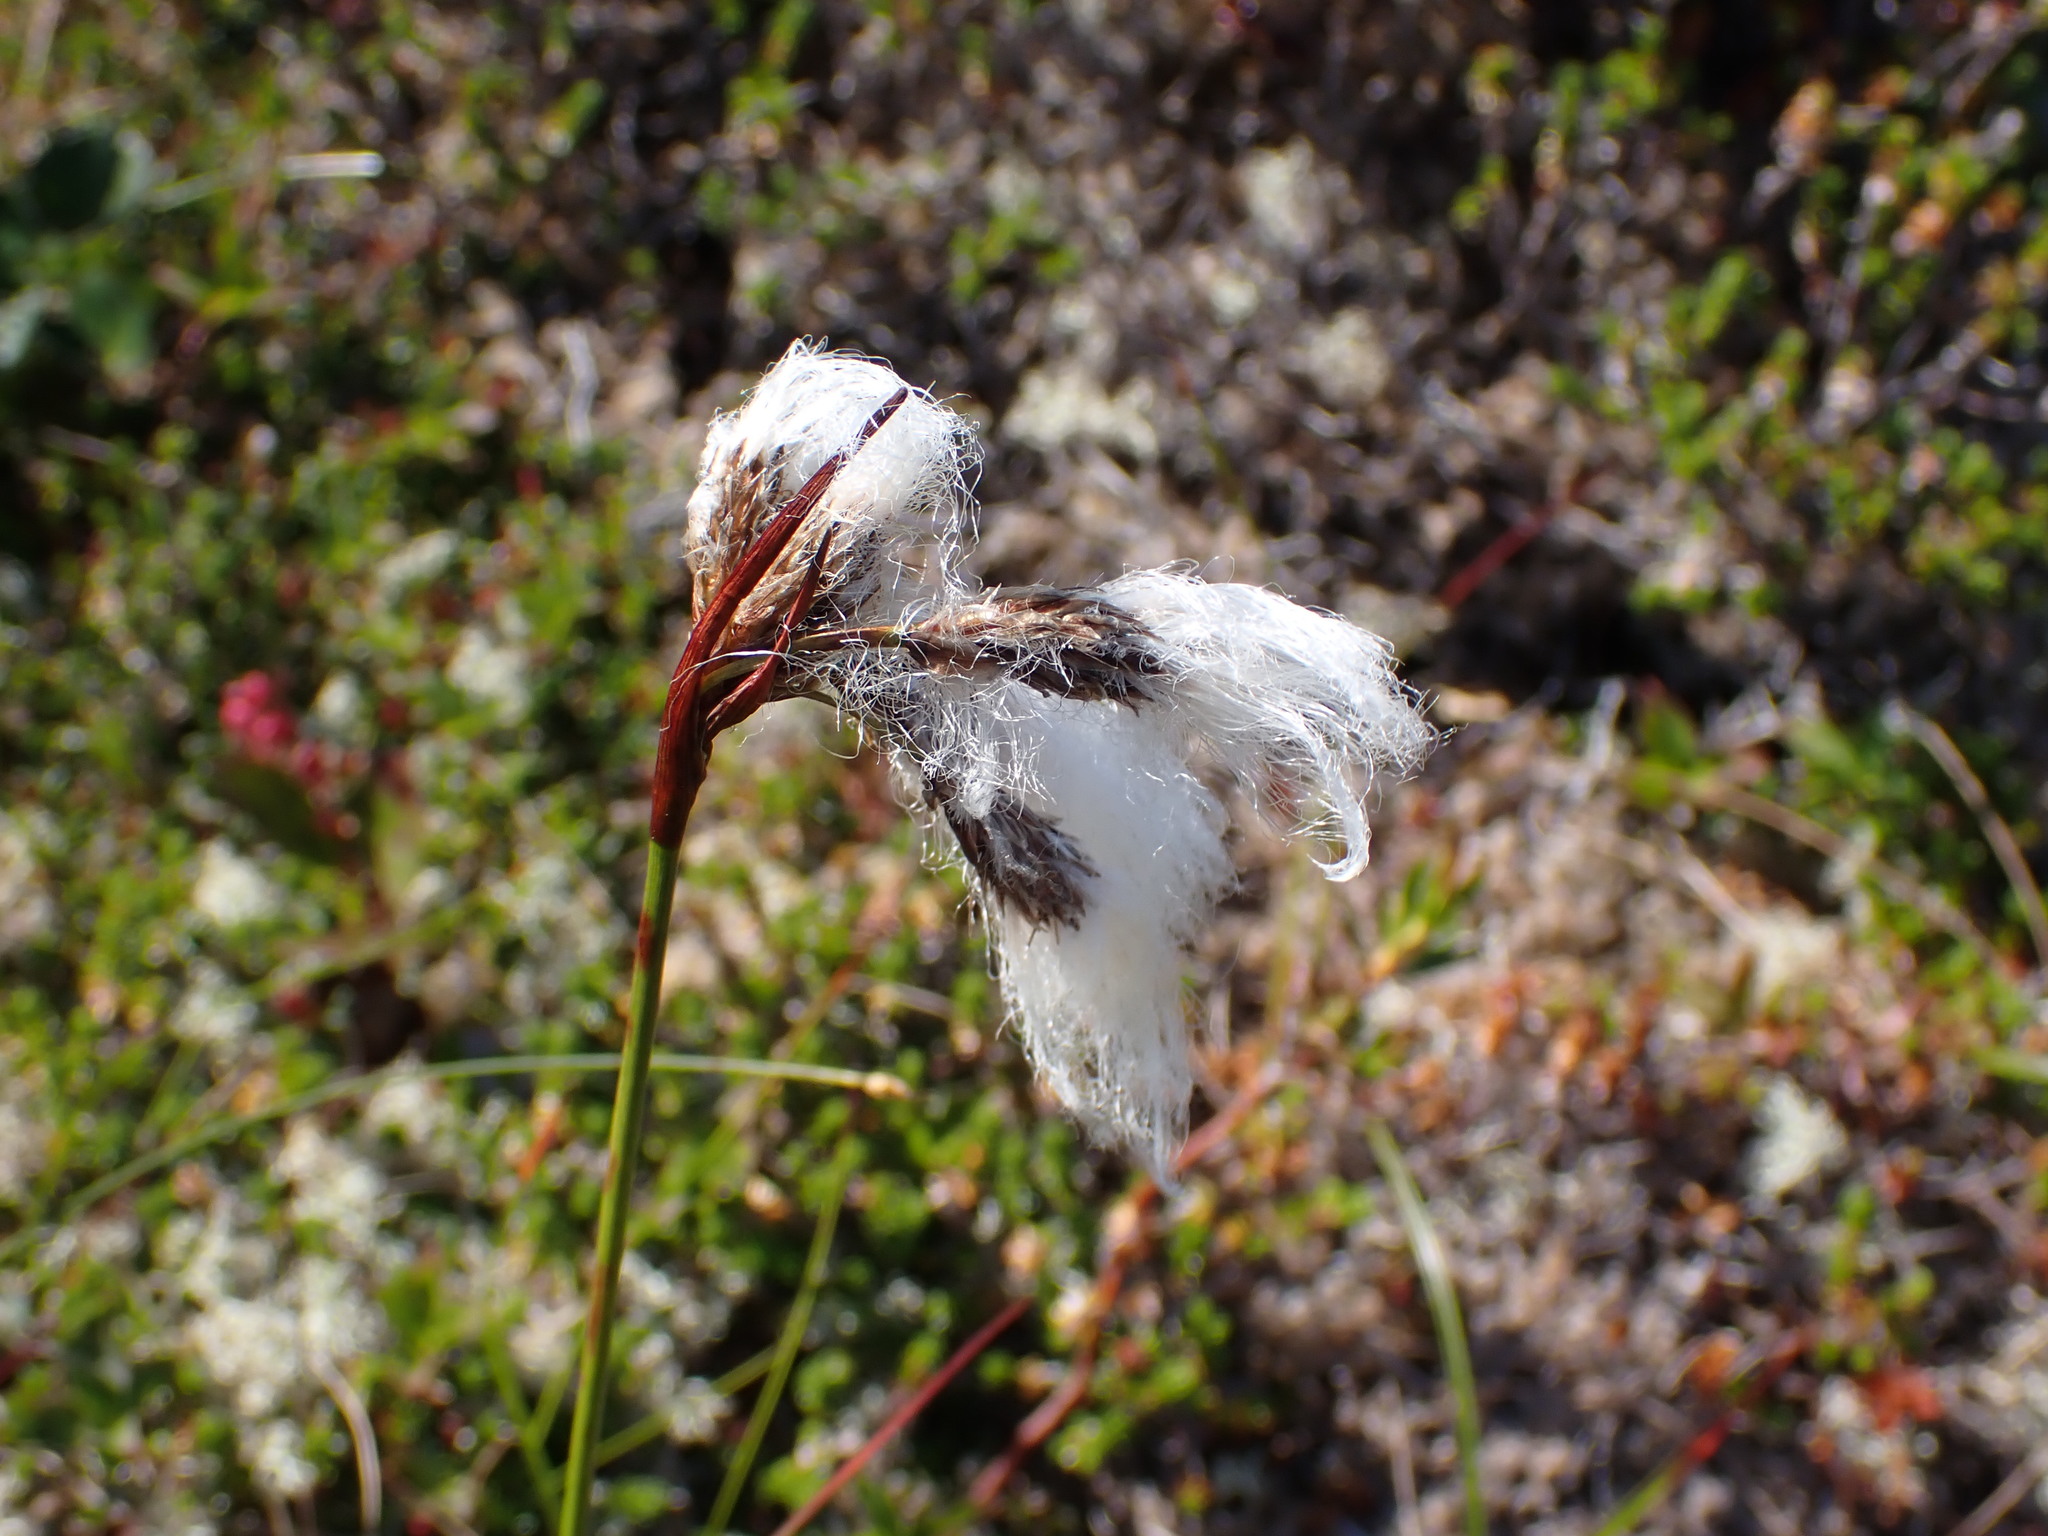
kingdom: Plantae
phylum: Tracheophyta
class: Liliopsida
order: Poales
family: Cyperaceae
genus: Eriophorum
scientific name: Eriophorum angustifolium
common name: Common cottongrass
